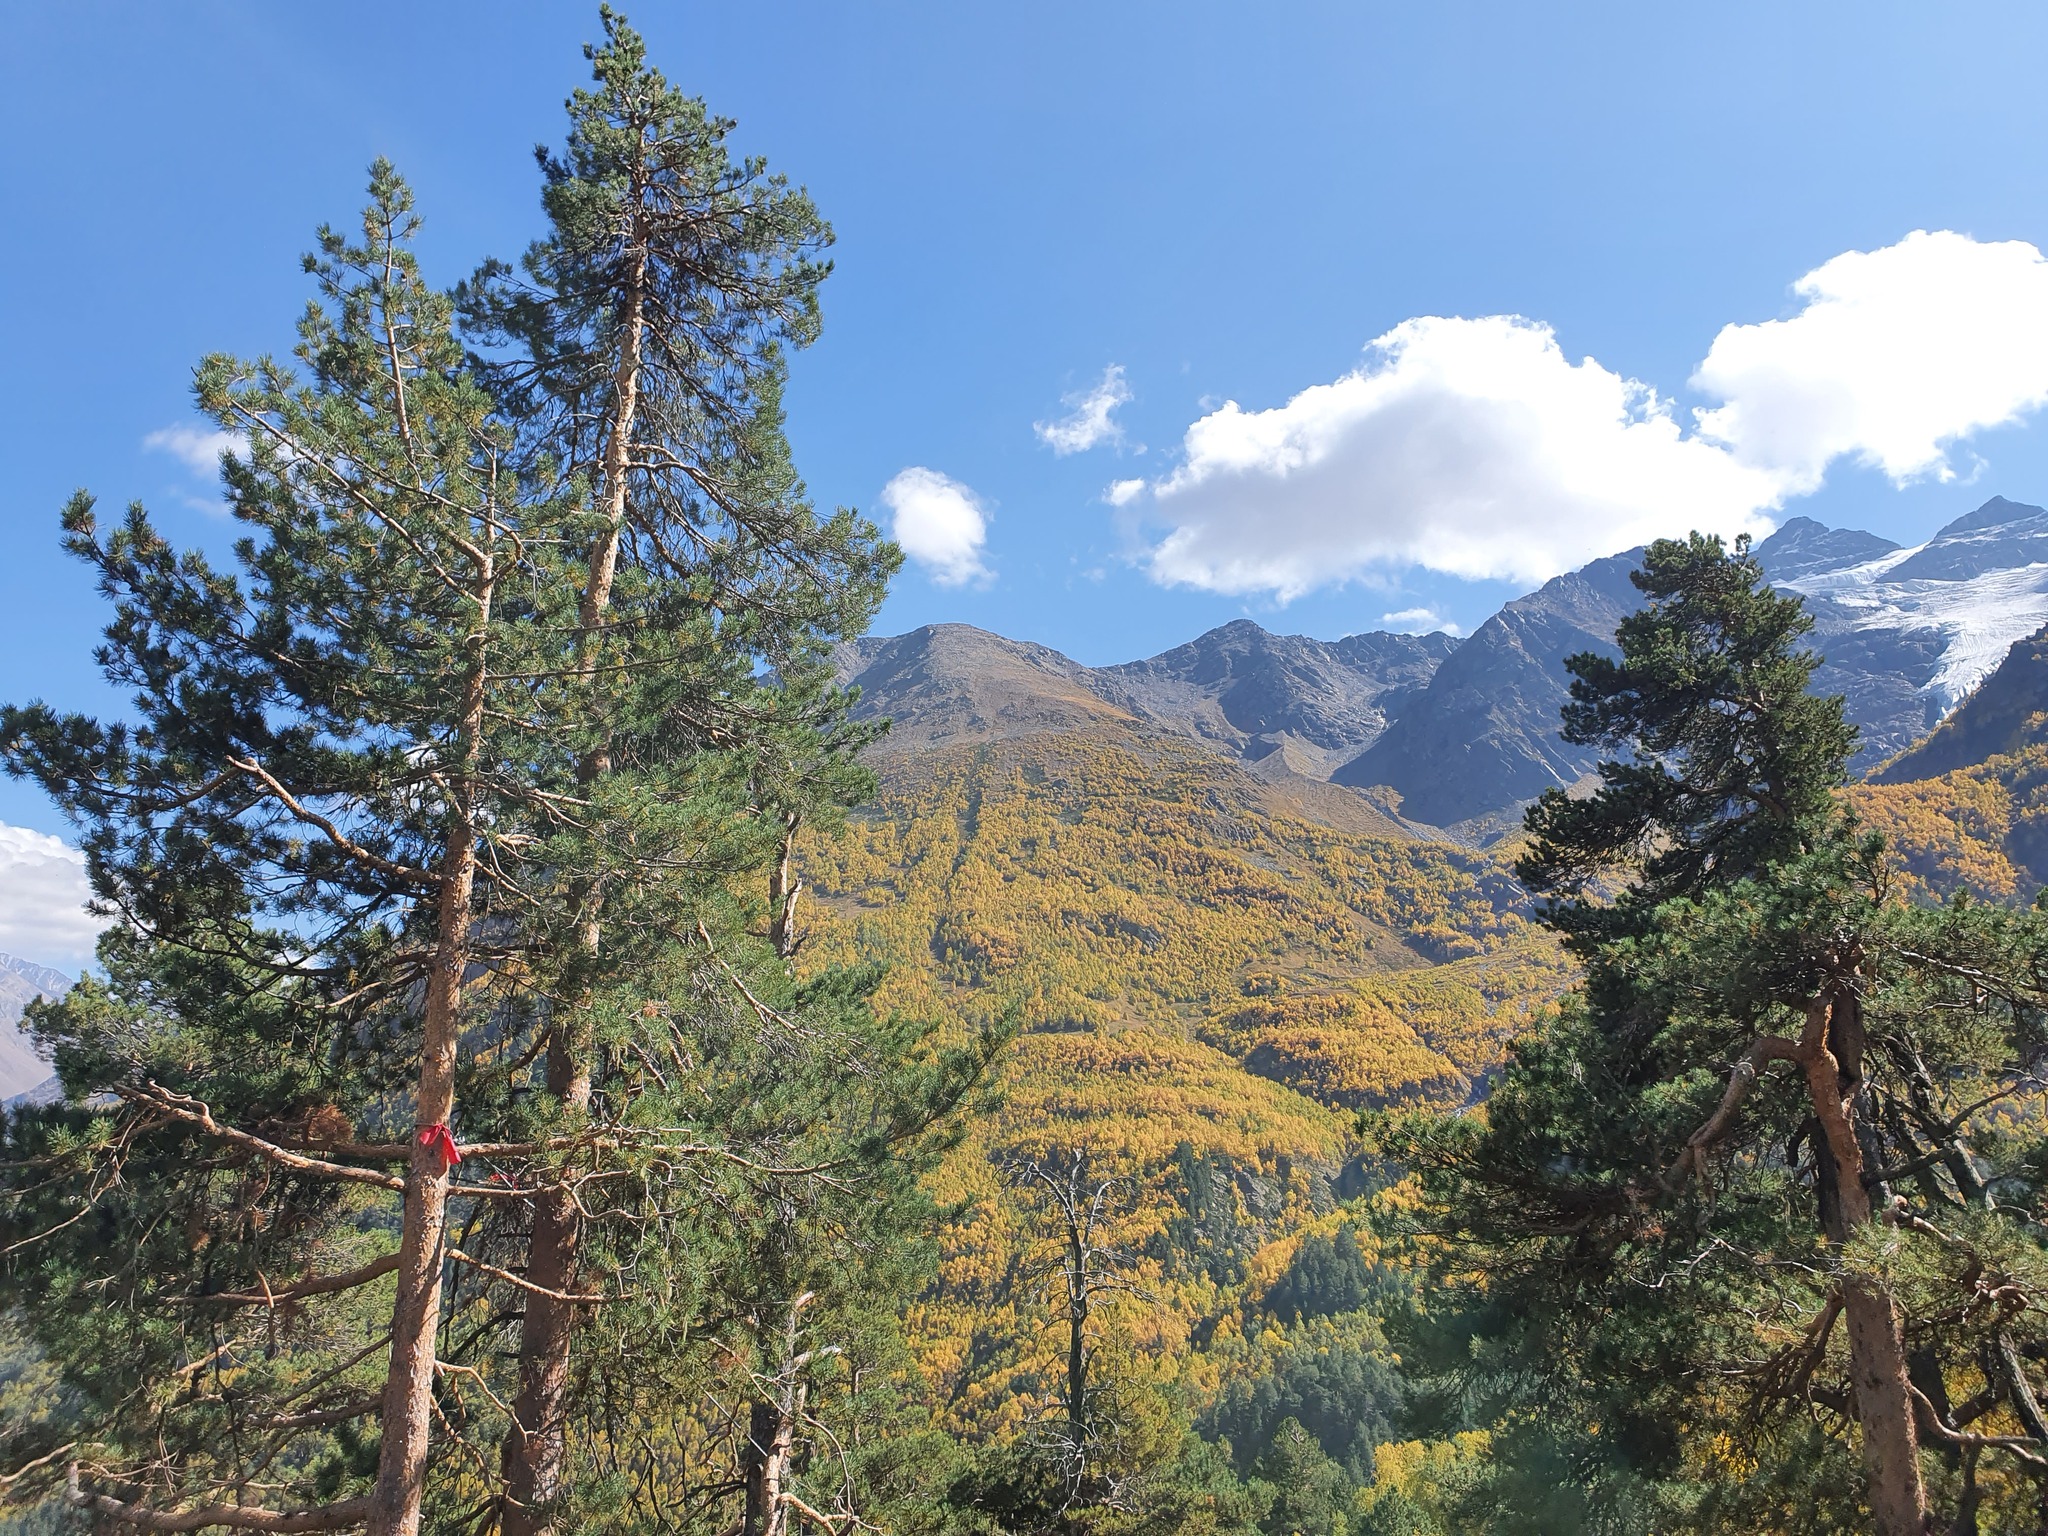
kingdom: Plantae
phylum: Tracheophyta
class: Pinopsida
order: Pinales
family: Pinaceae
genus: Pinus
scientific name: Pinus sylvestris
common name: Scots pine
